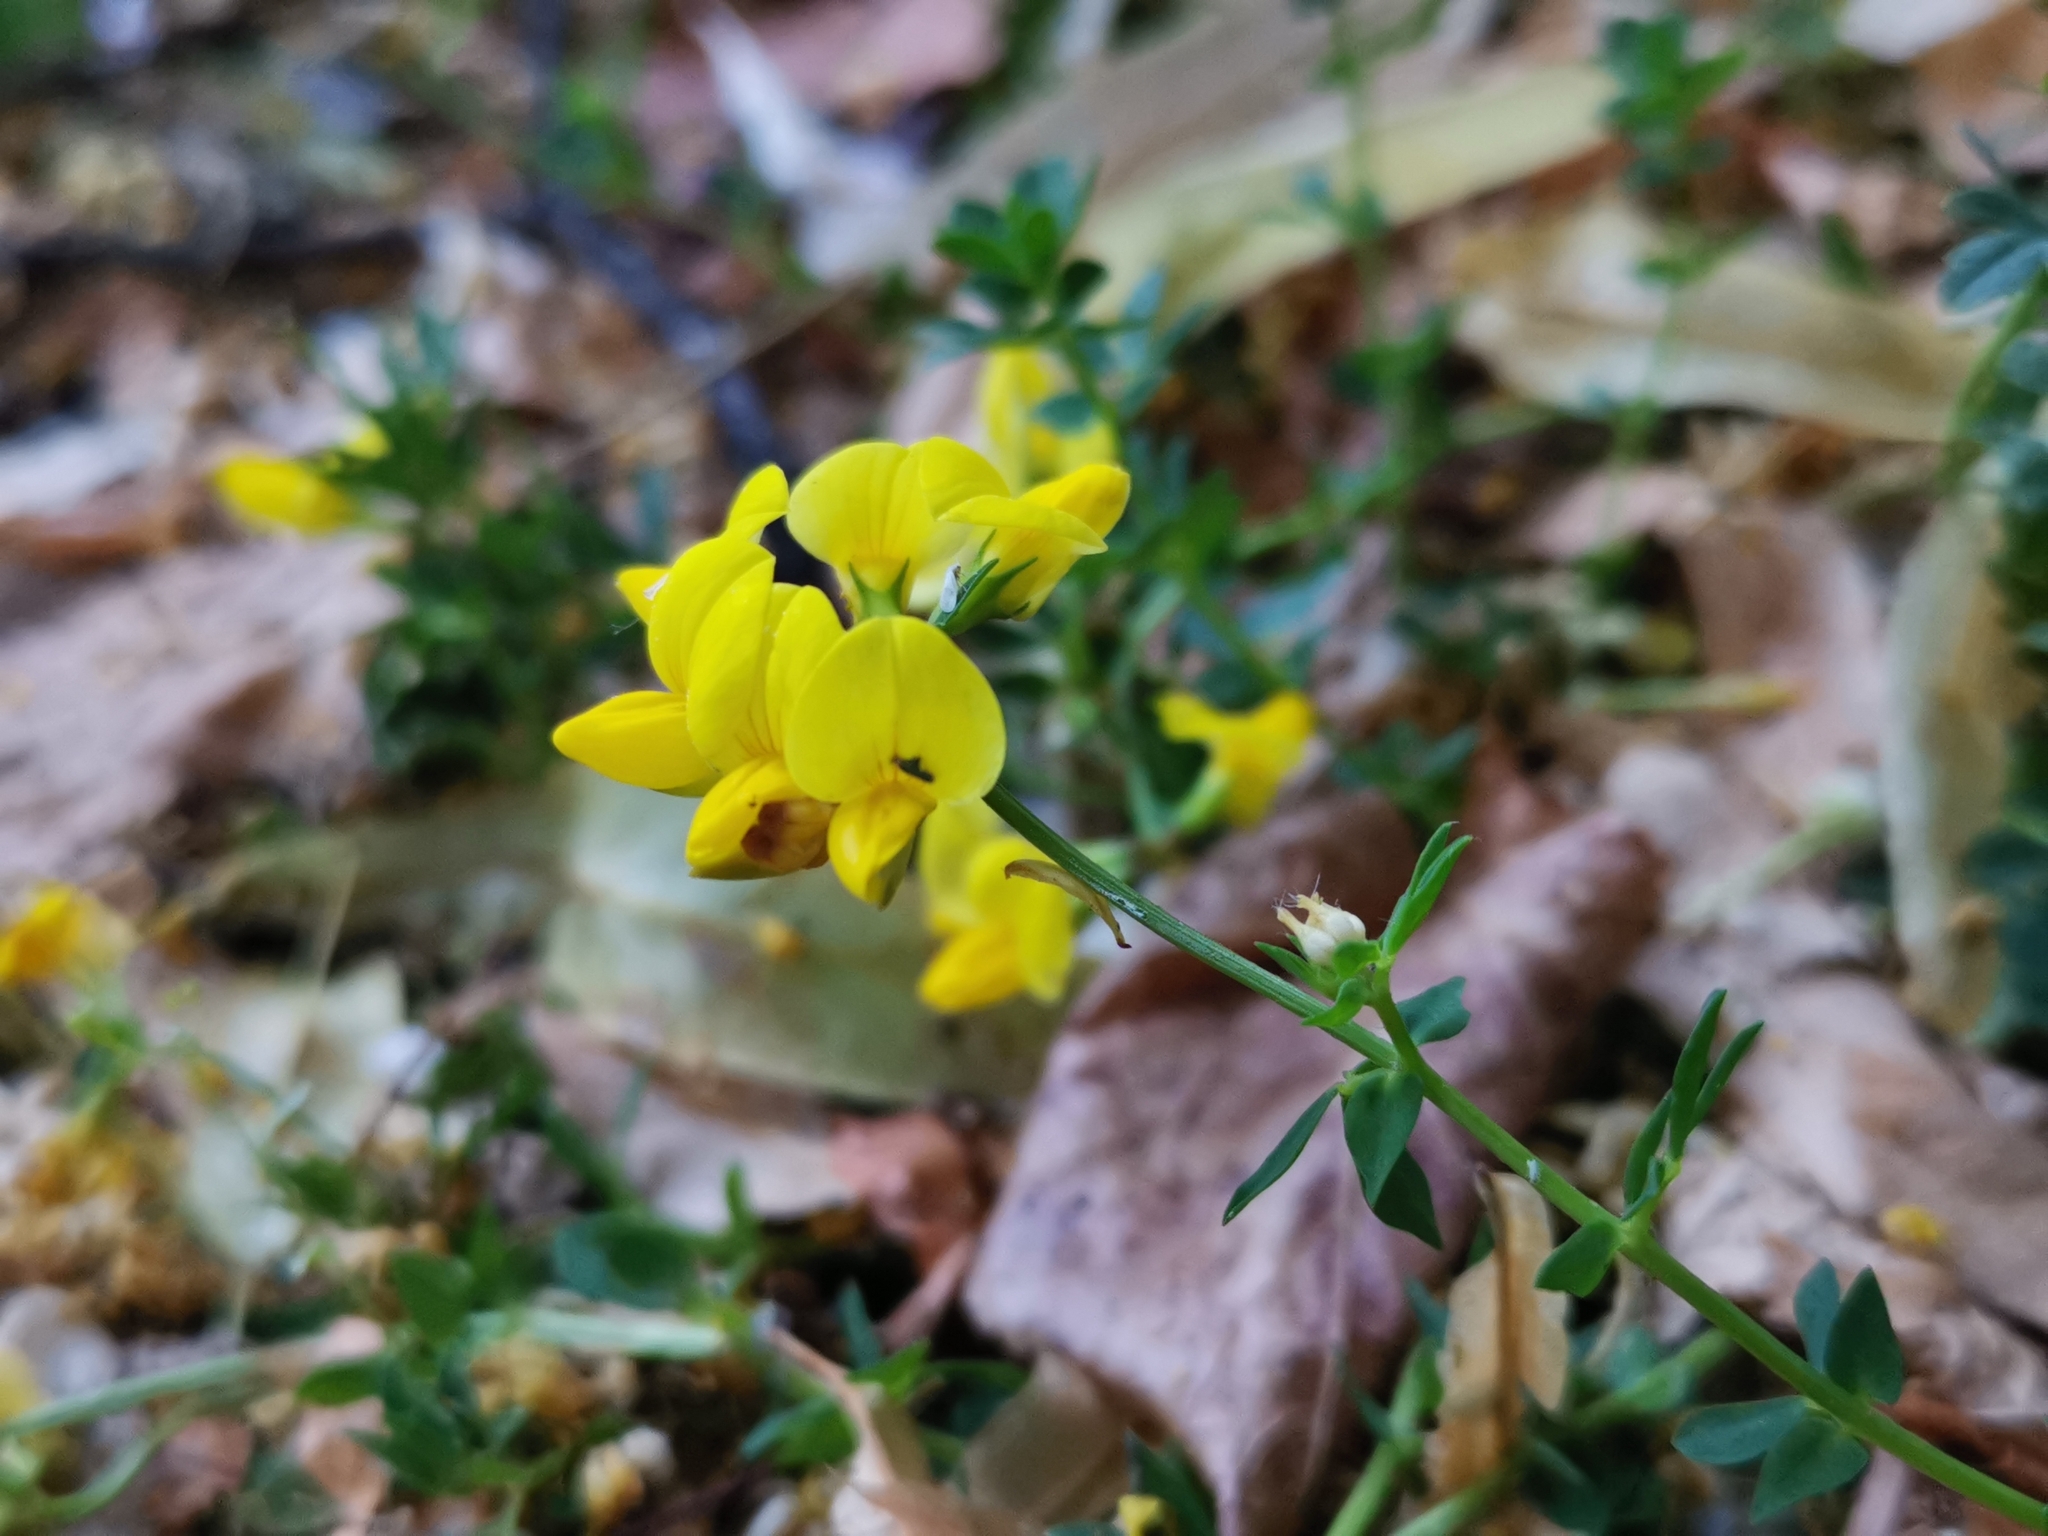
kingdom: Plantae
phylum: Tracheophyta
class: Magnoliopsida
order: Fabales
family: Fabaceae
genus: Lotus
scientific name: Lotus corniculatus
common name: Common bird's-foot-trefoil
